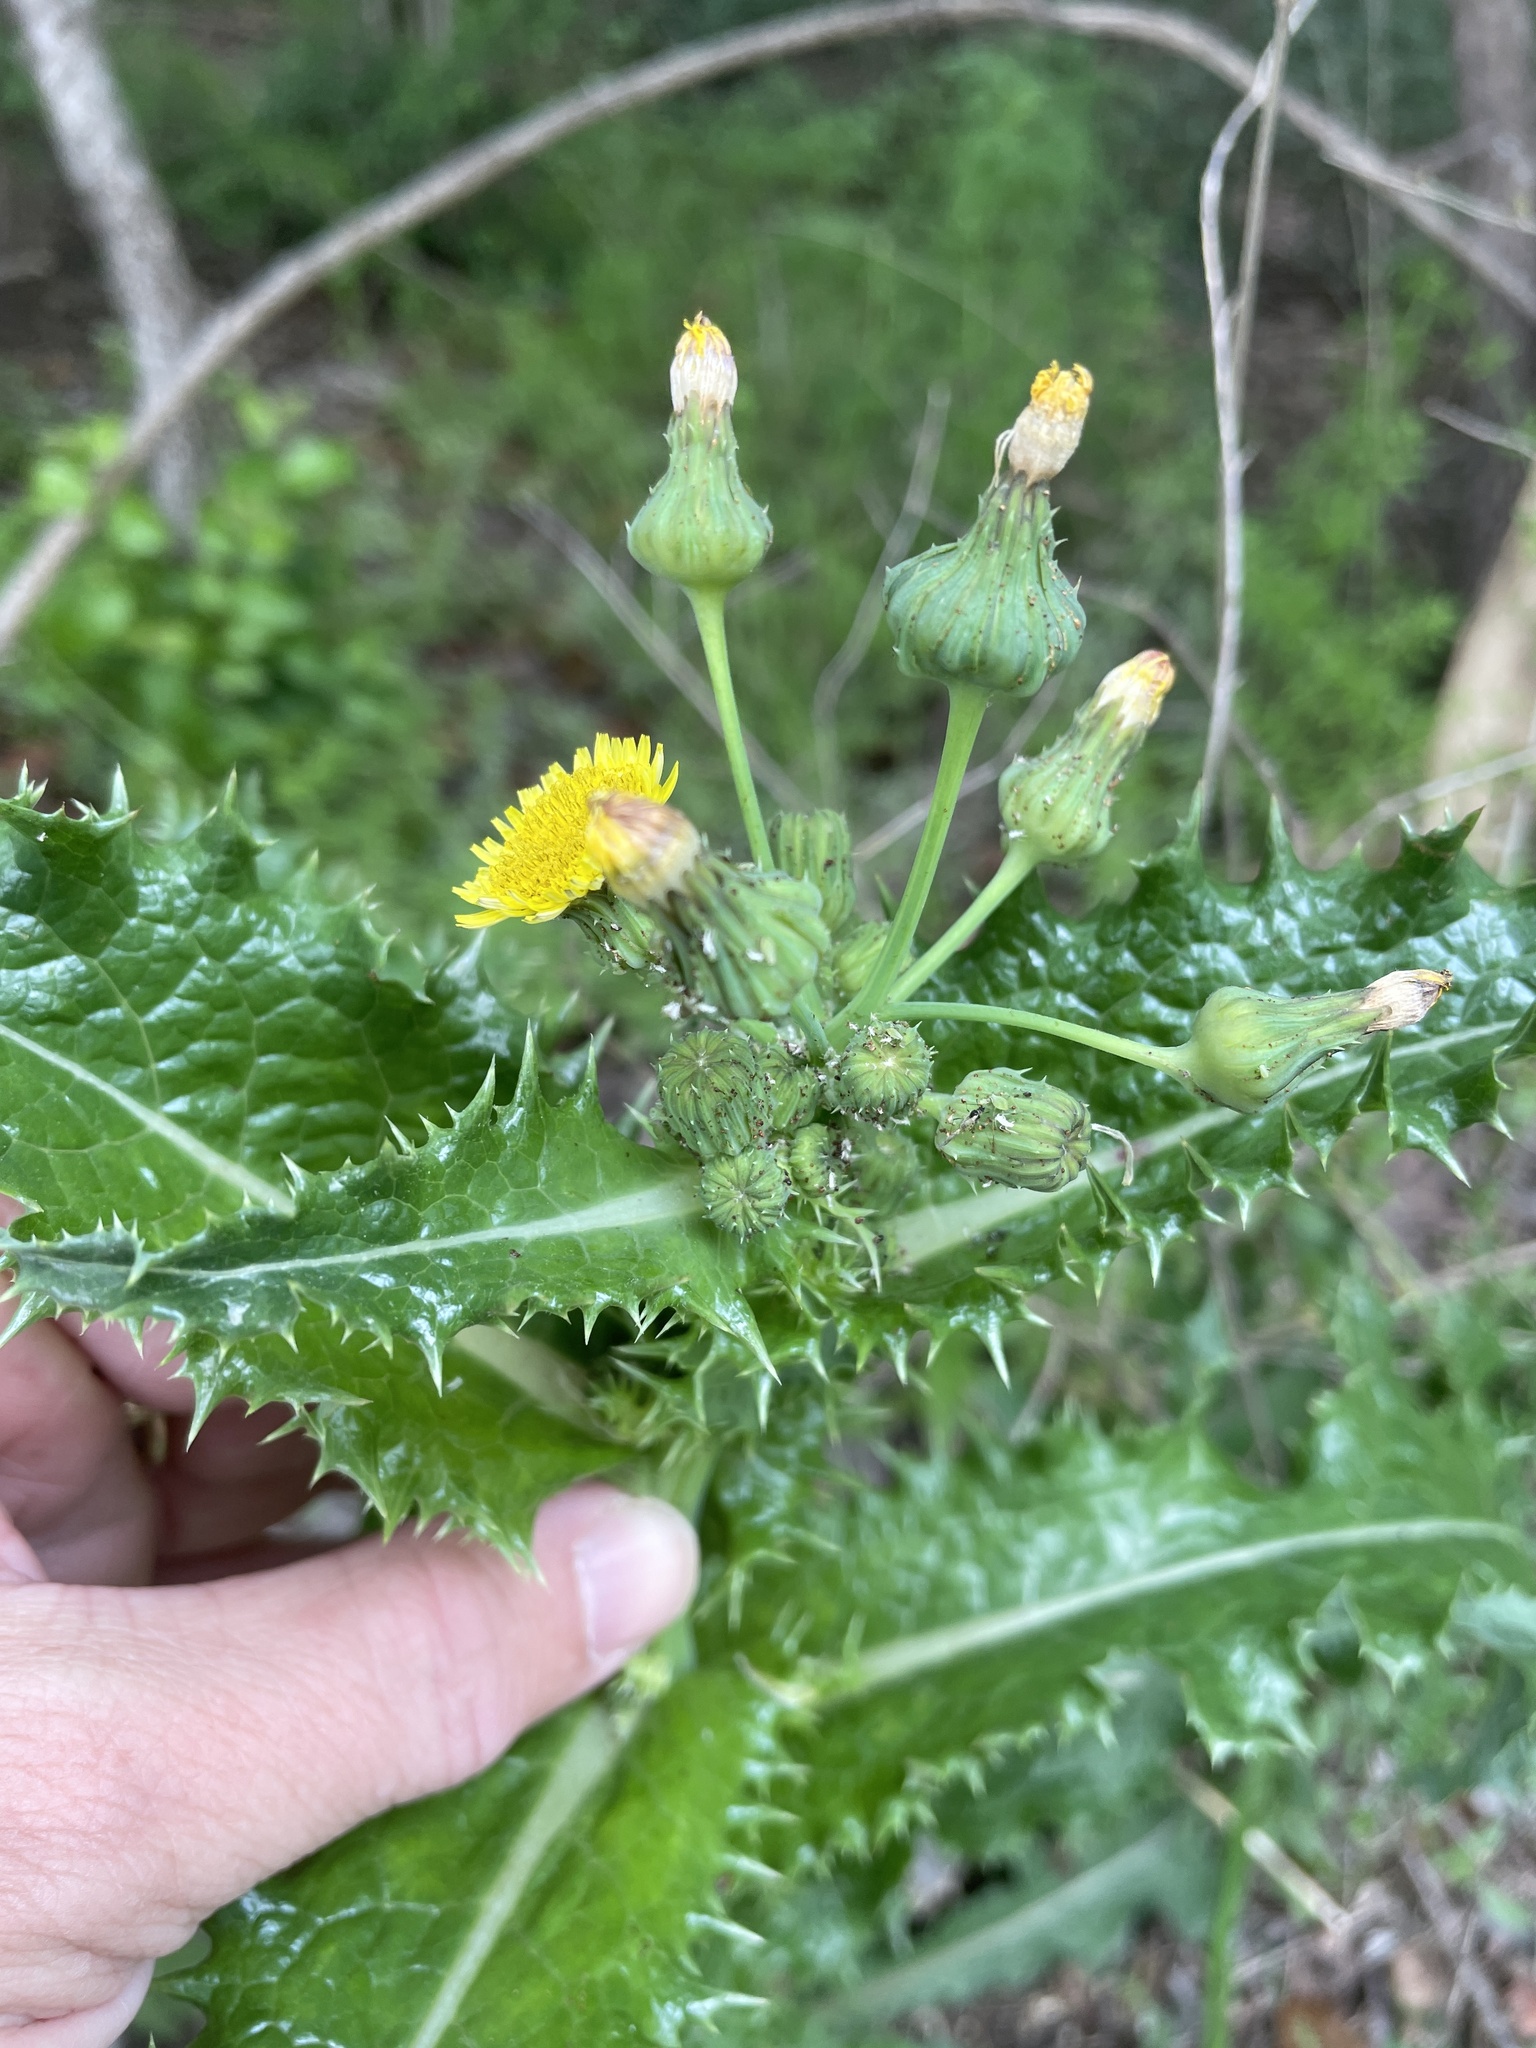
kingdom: Plantae
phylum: Tracheophyta
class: Magnoliopsida
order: Asterales
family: Asteraceae
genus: Sonchus
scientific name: Sonchus asper
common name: Prickly sow-thistle
